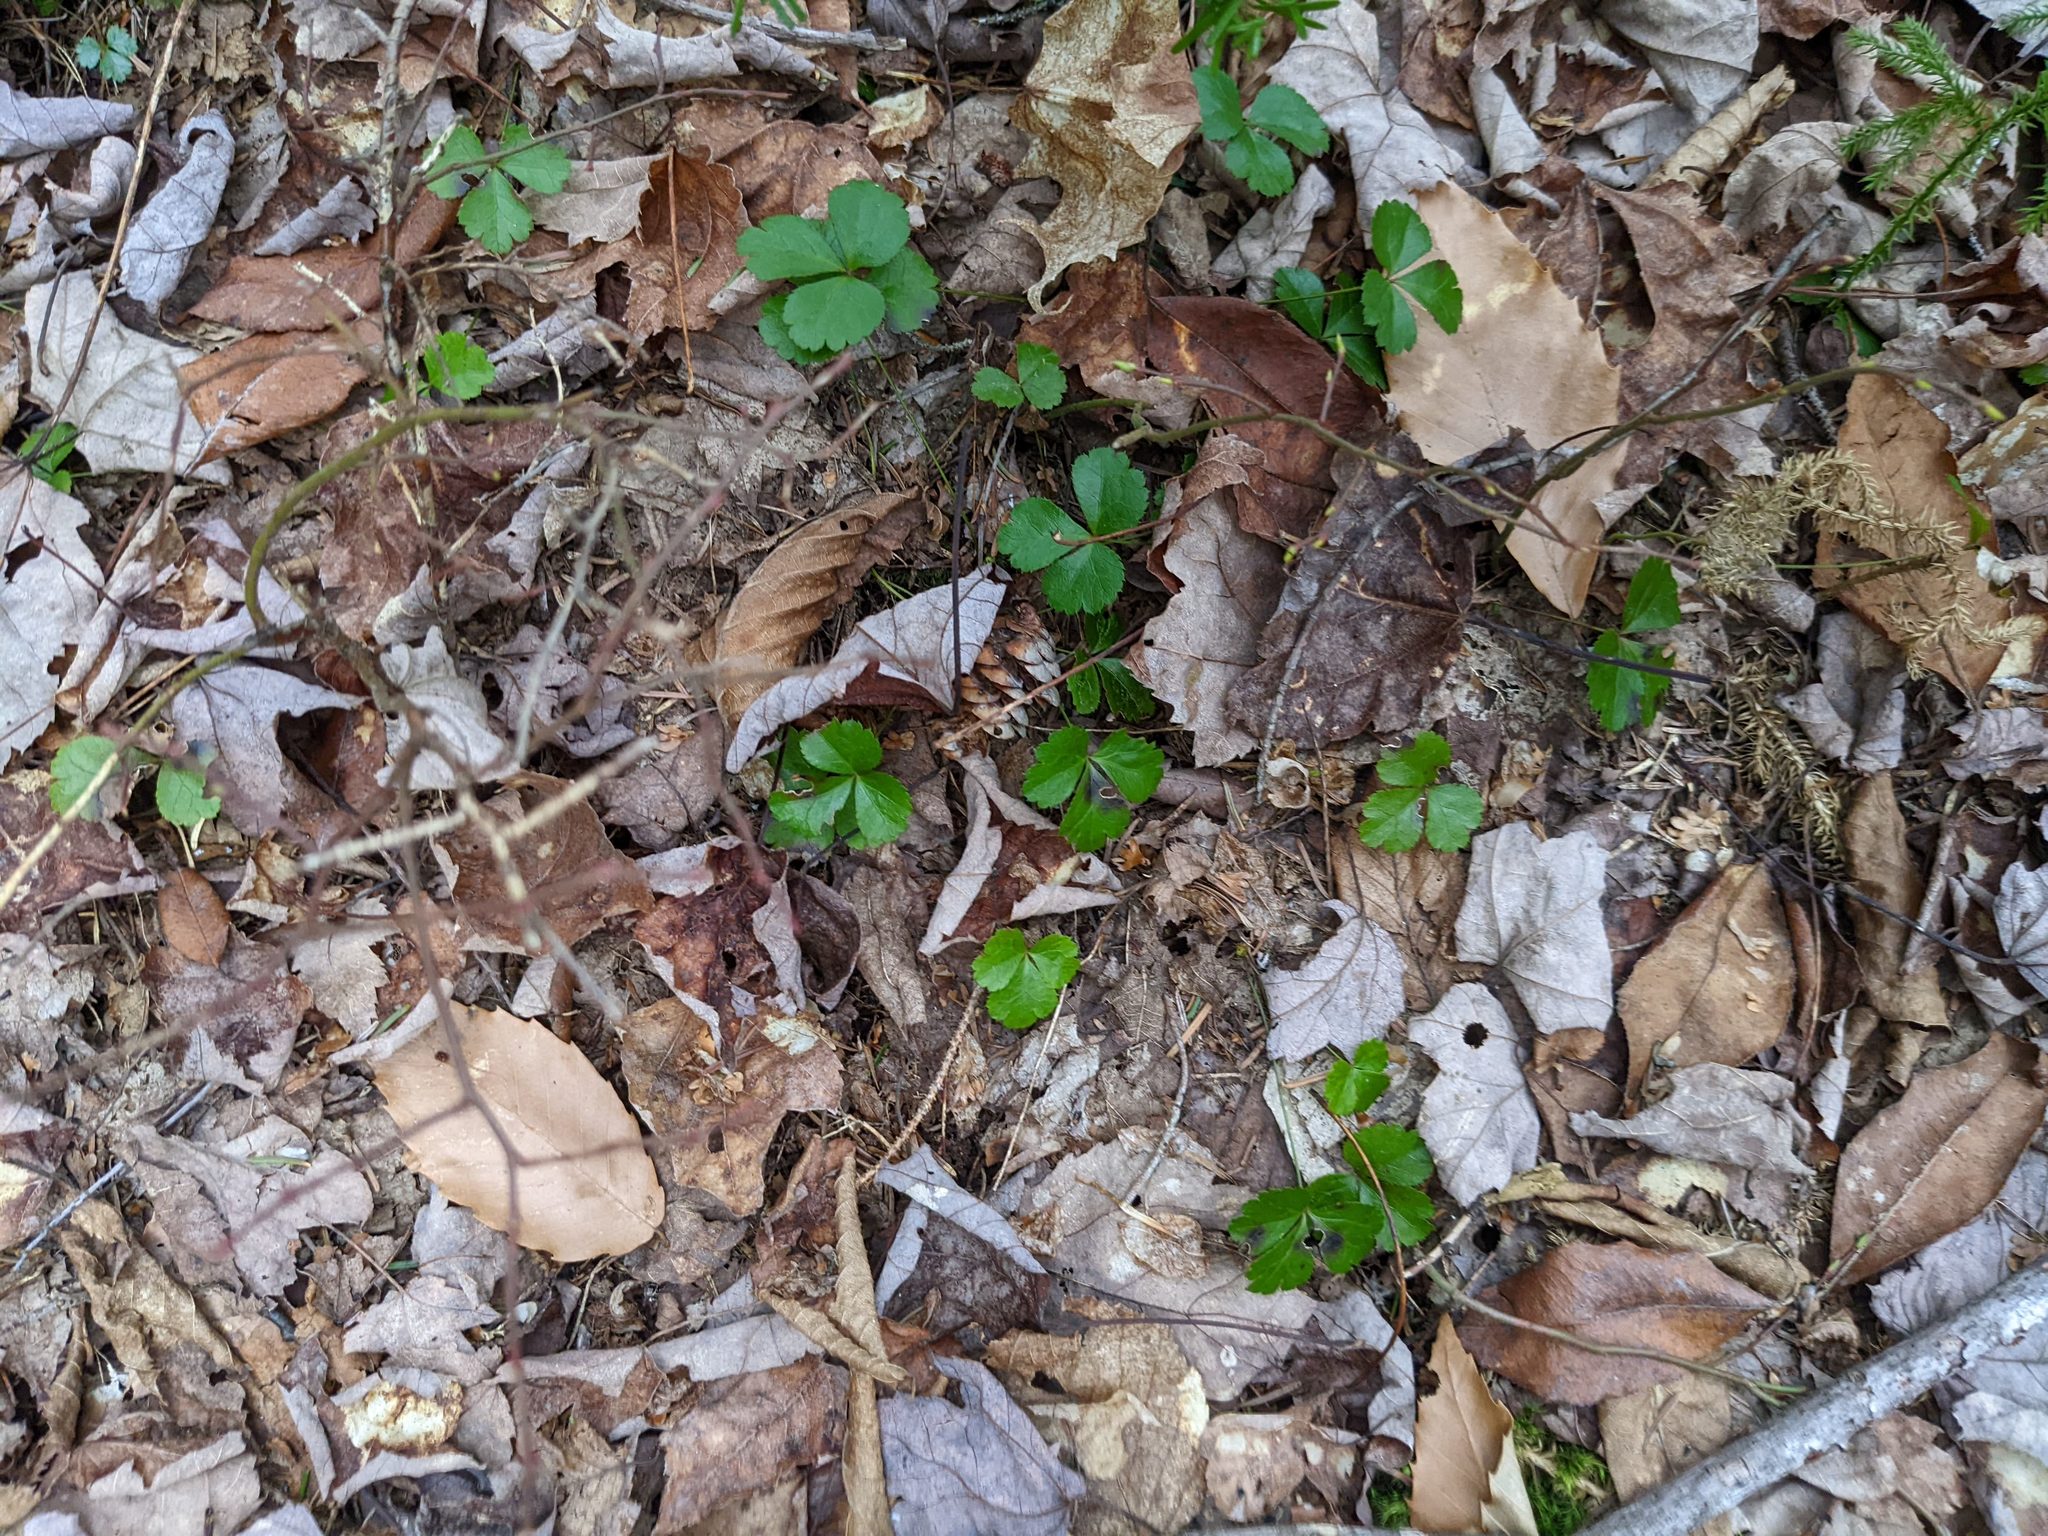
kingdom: Plantae
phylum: Tracheophyta
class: Magnoliopsida
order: Ranunculales
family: Ranunculaceae
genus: Coptis
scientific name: Coptis trifolia
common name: Canker-root
